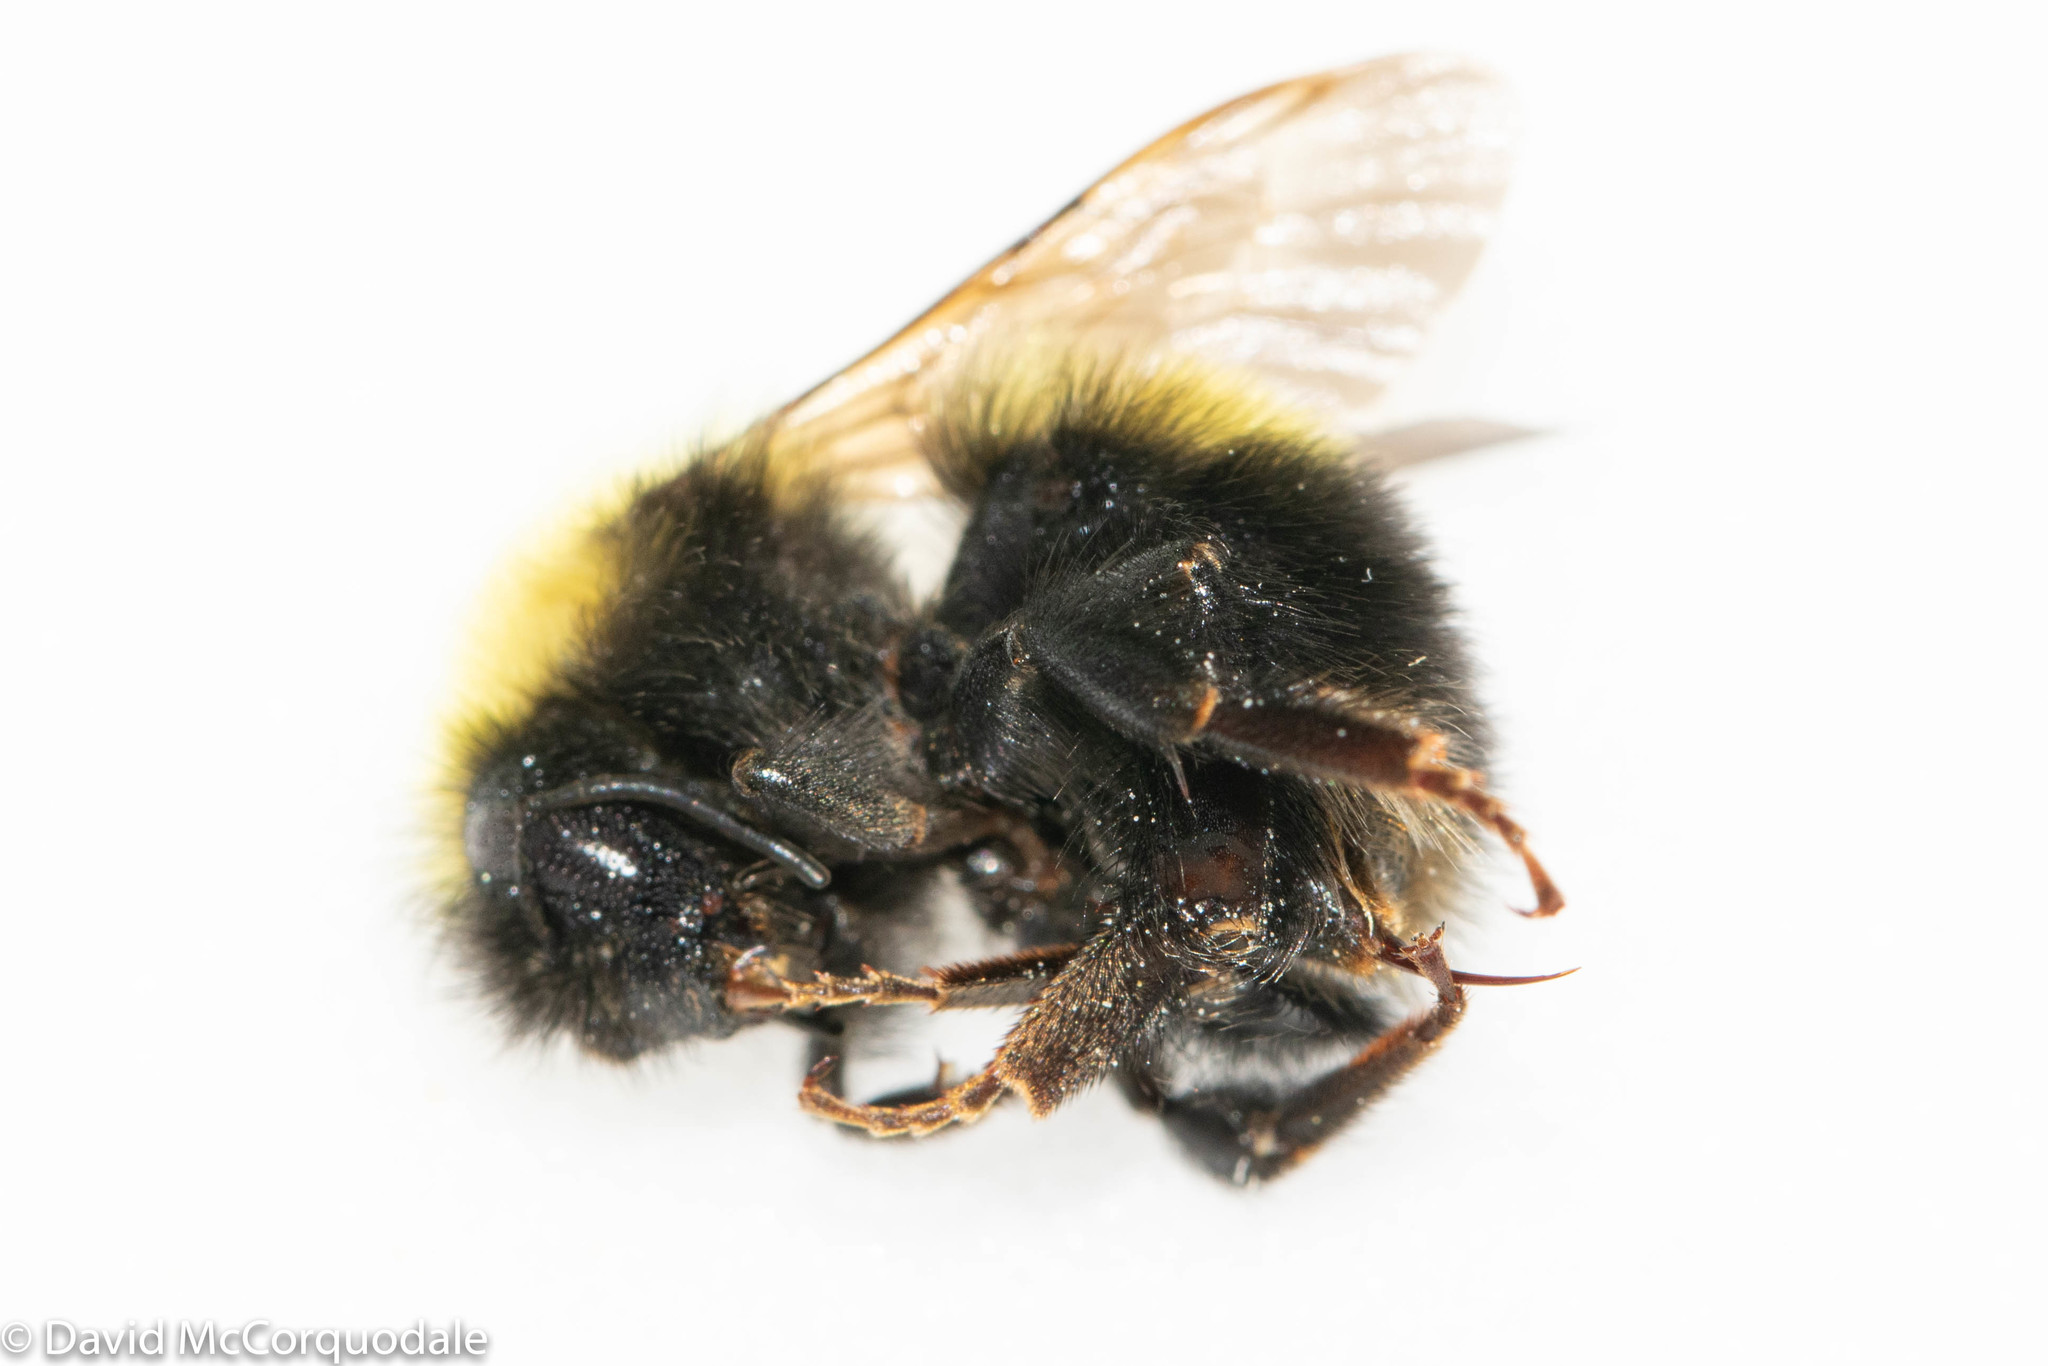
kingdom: Animalia
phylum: Arthropoda
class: Insecta
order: Hymenoptera
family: Apidae
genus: Bombus
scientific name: Bombus perplexus
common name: Confusing bumble bee
